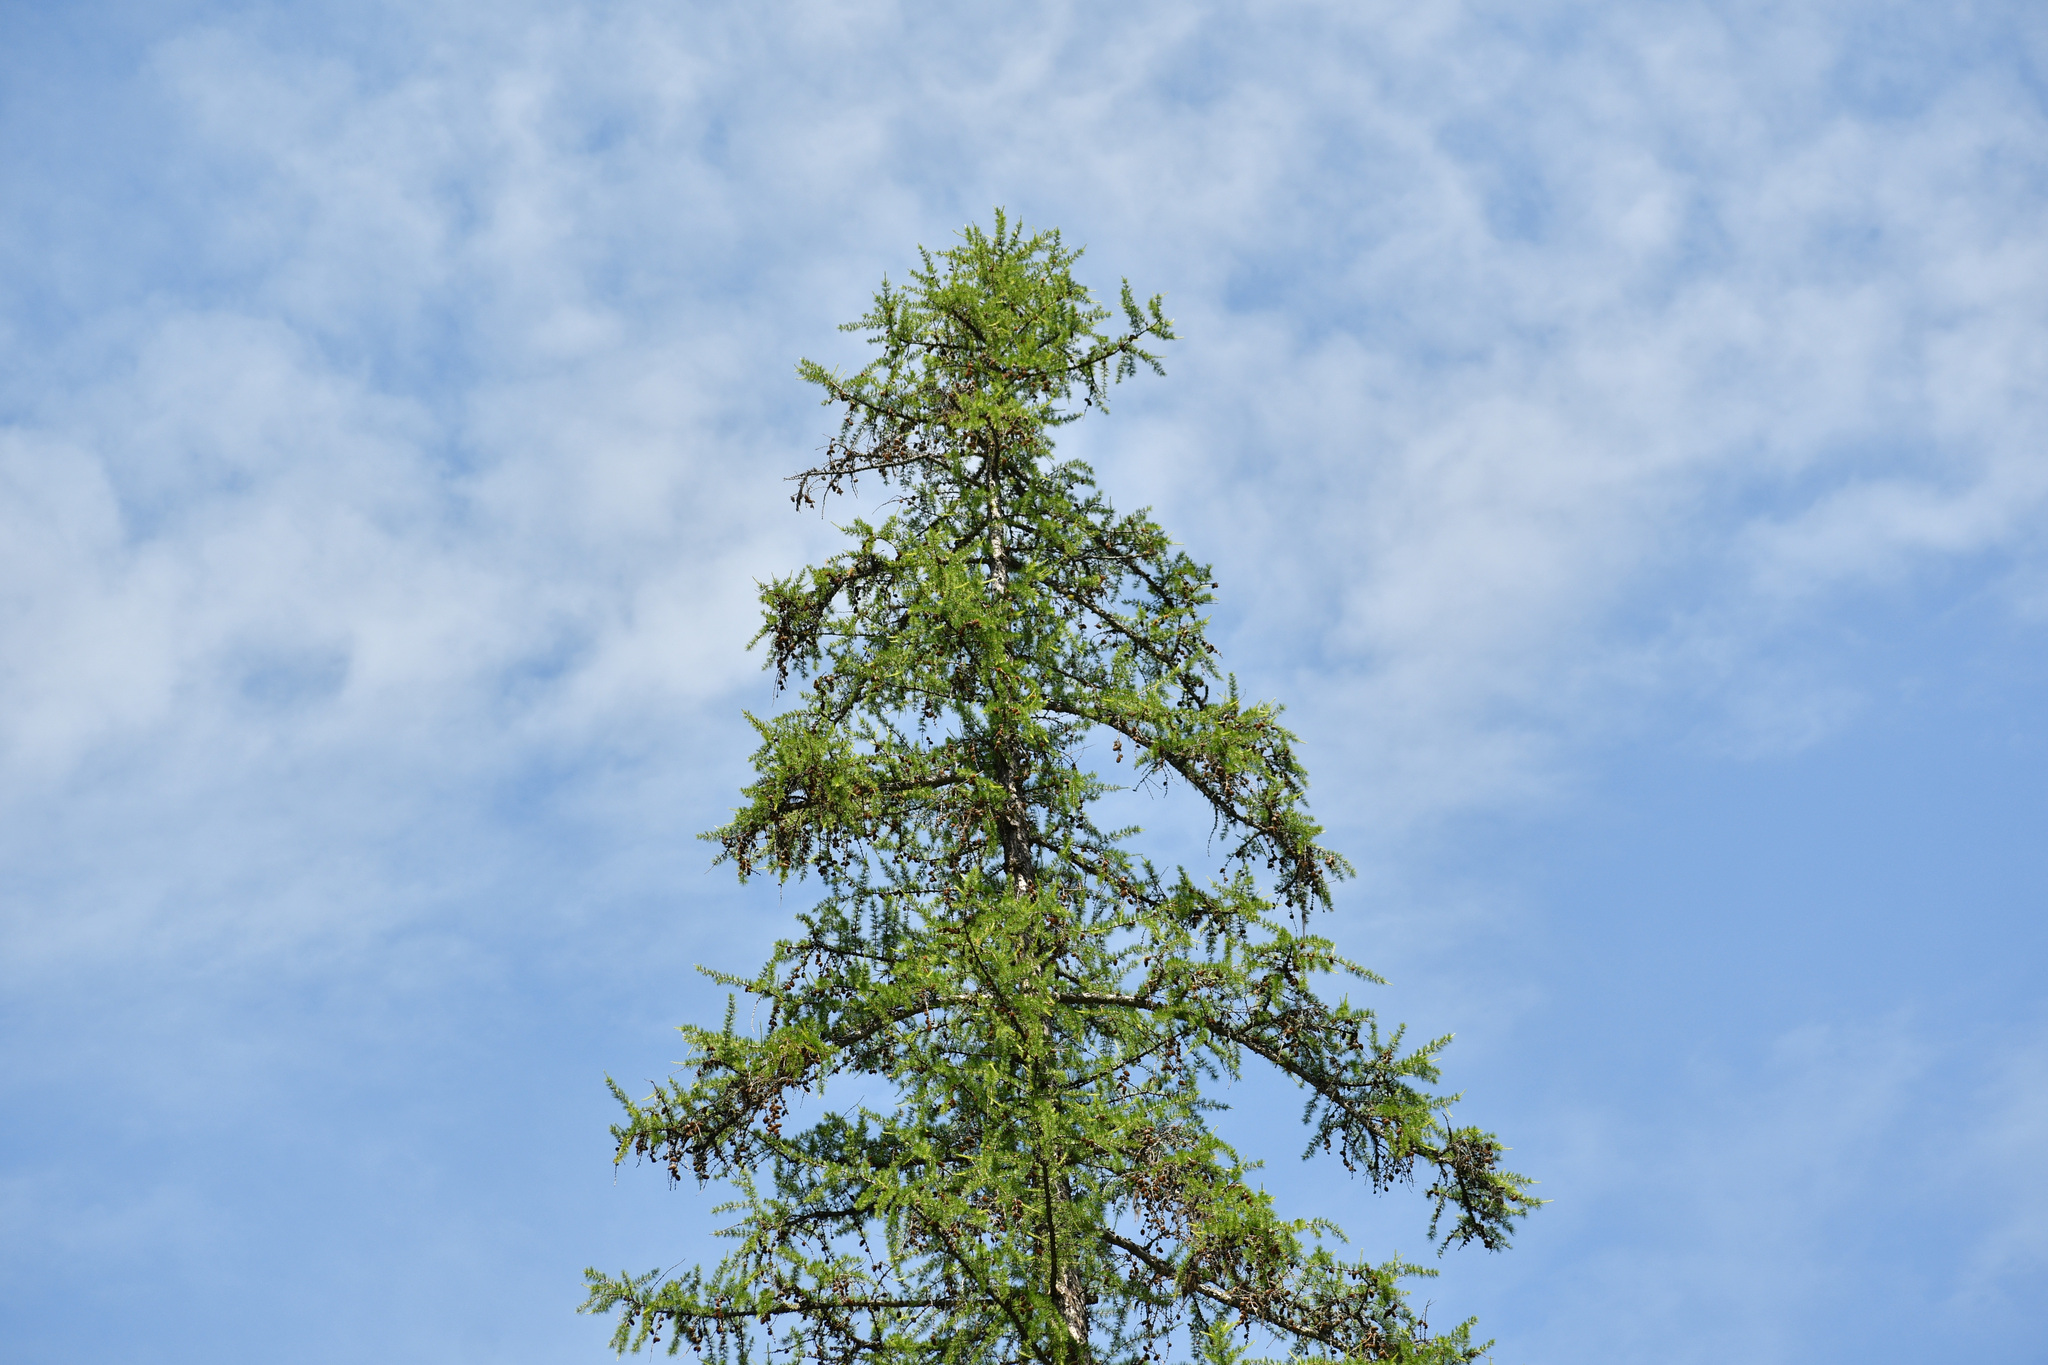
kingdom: Plantae
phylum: Tracheophyta
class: Pinopsida
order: Pinales
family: Pinaceae
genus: Larix
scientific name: Larix occidentalis
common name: Western larch
